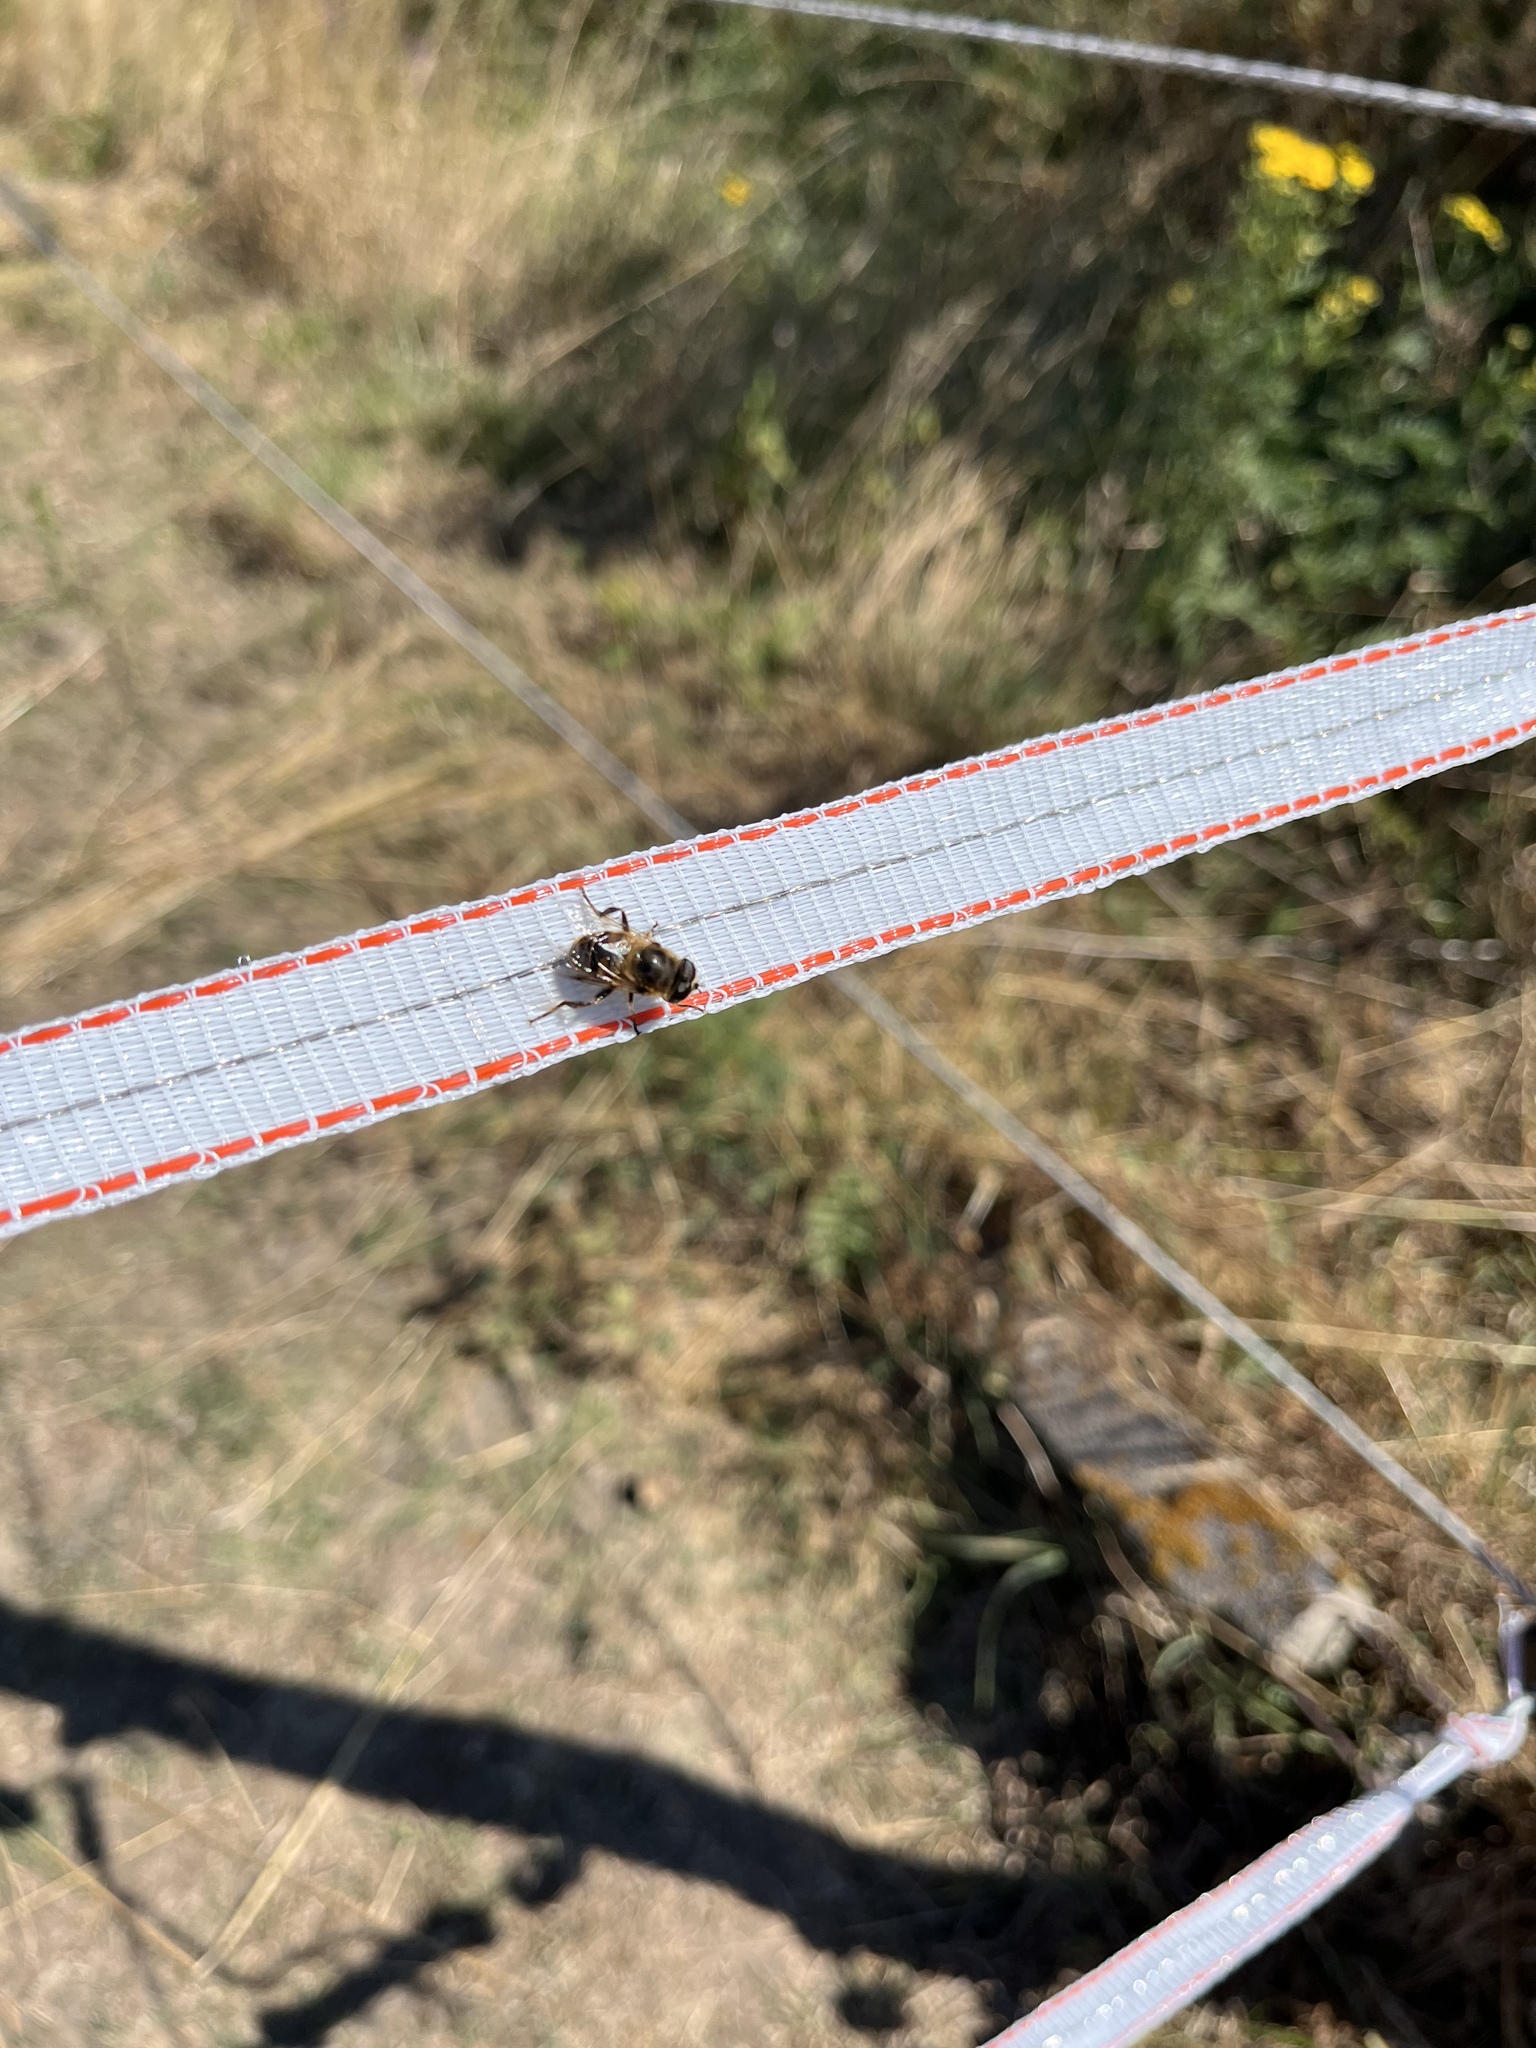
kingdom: Animalia
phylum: Arthropoda
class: Insecta
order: Diptera
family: Syrphidae
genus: Eristalis
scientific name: Eristalis tenax
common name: Drone fly
